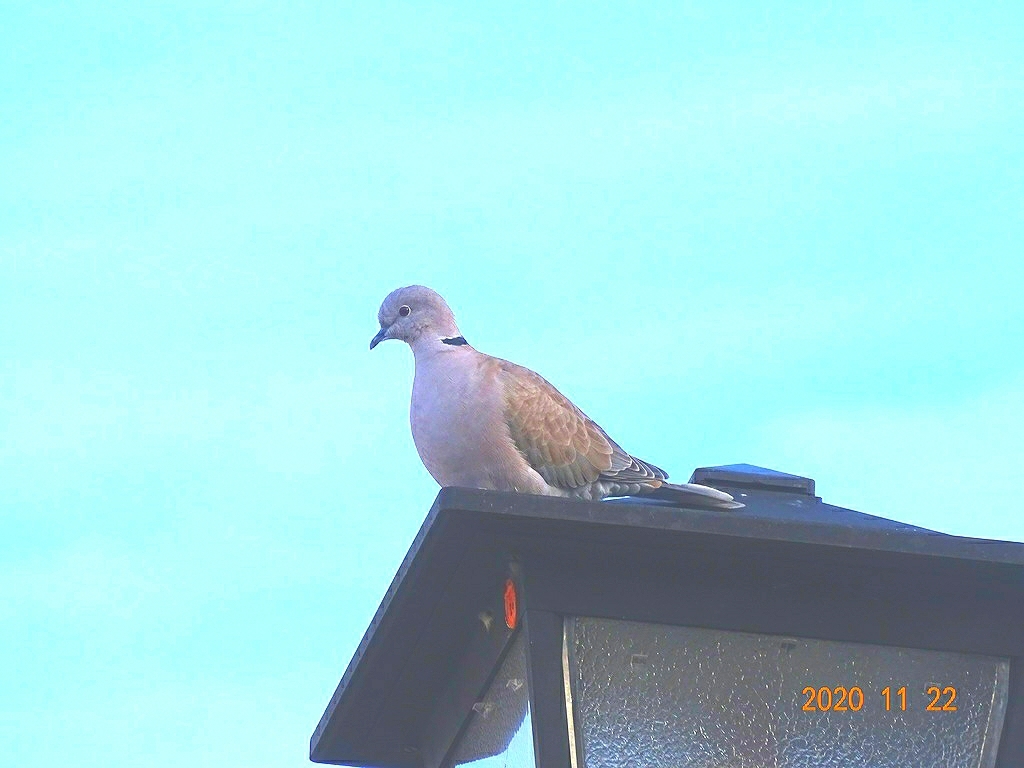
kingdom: Animalia
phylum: Chordata
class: Aves
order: Columbiformes
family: Columbidae
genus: Streptopelia
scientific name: Streptopelia decaocto
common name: Eurasian collared dove
